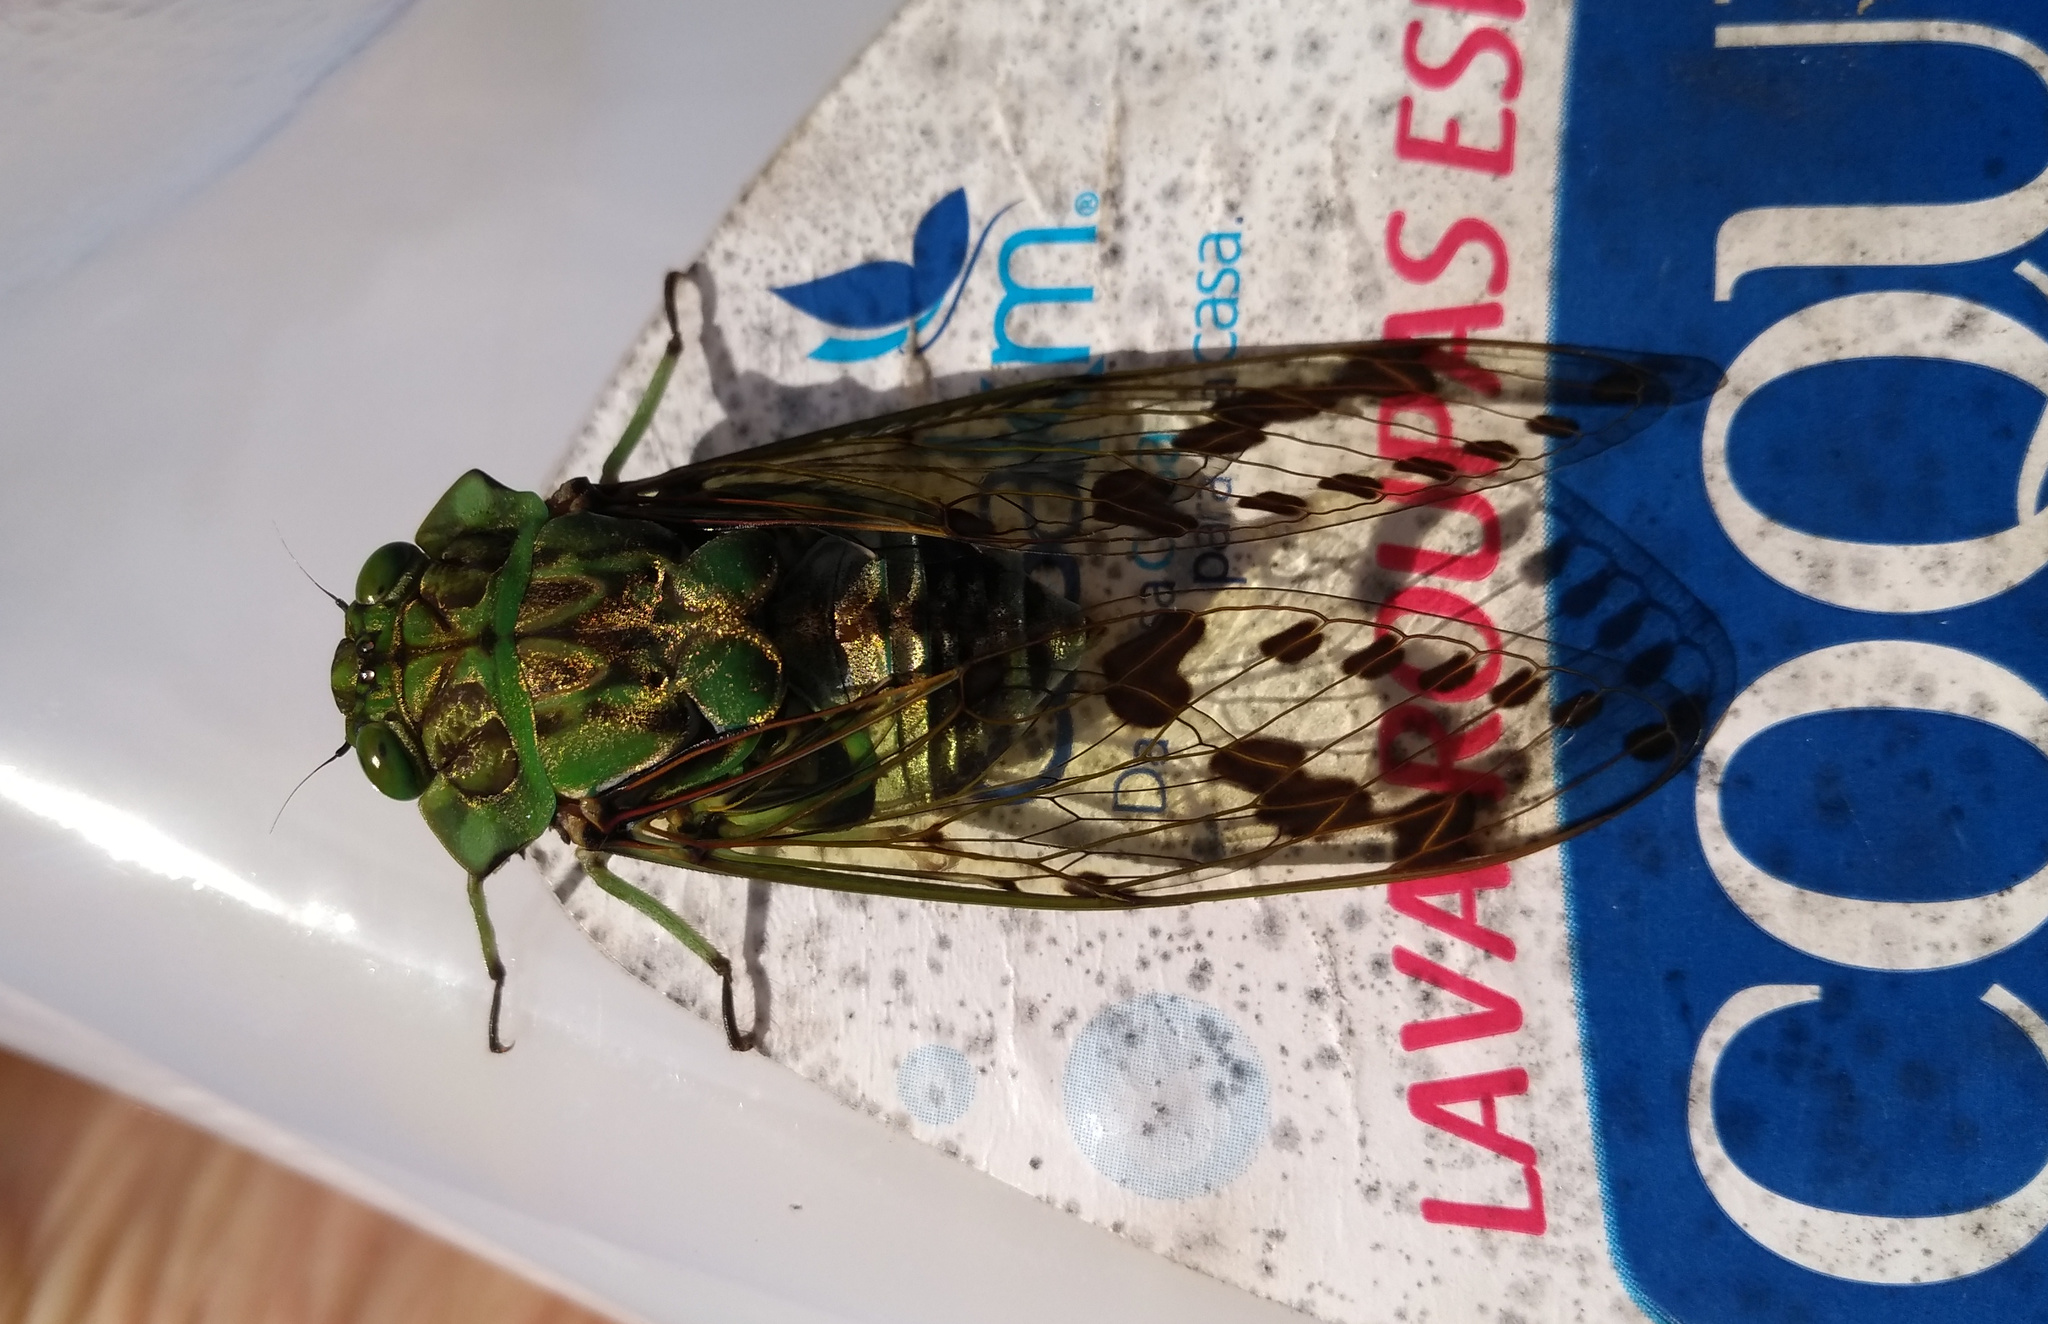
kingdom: Animalia
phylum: Arthropoda
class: Insecta
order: Hemiptera
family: Cicadidae
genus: Zammara
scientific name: Zammara tympanum
